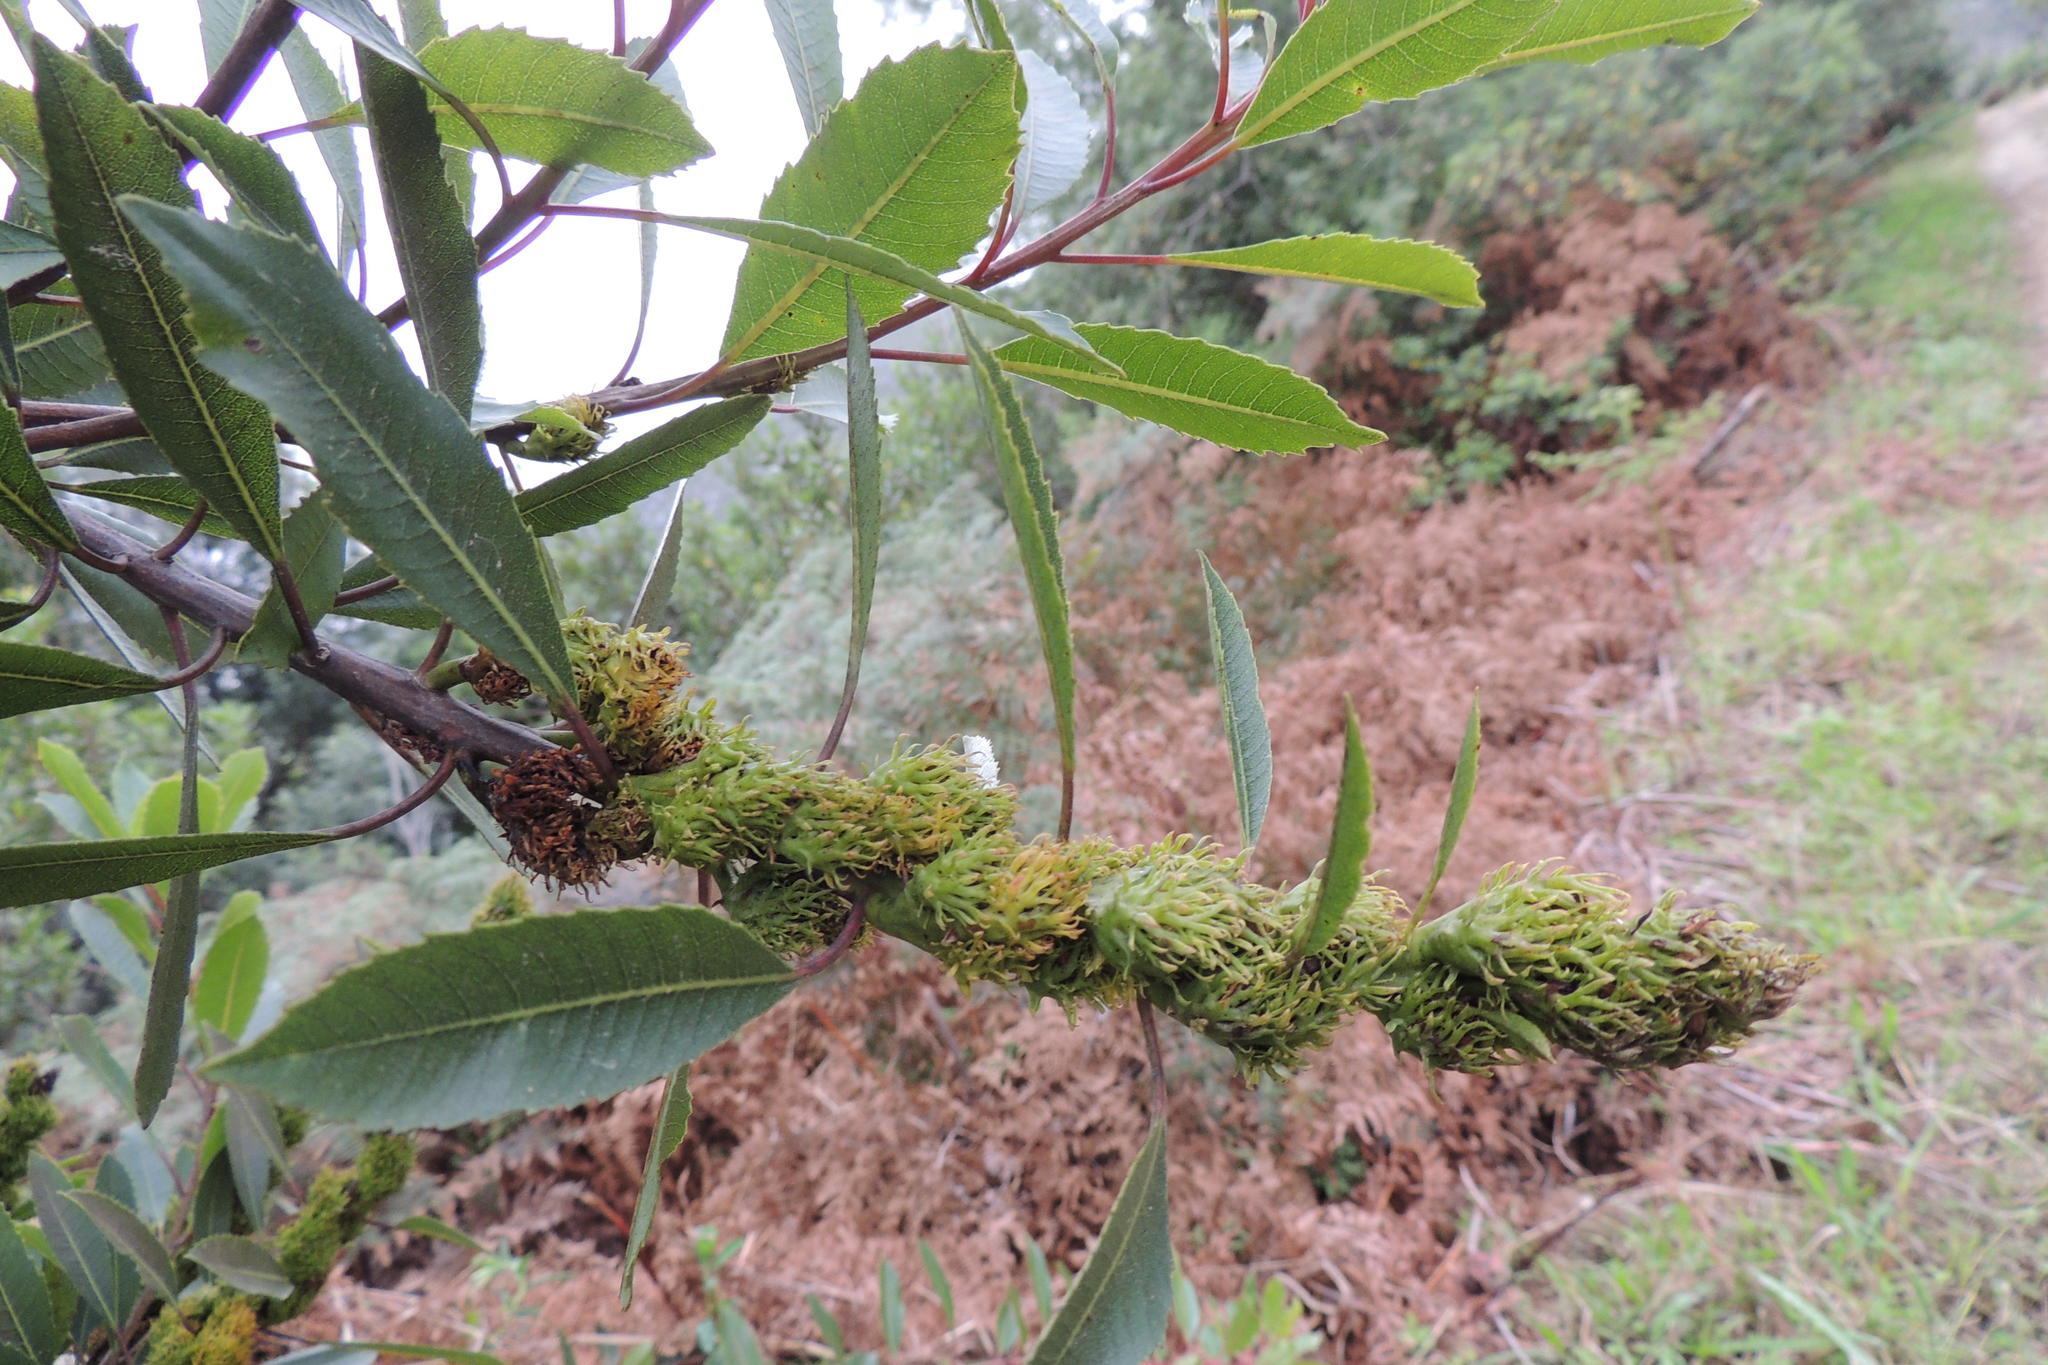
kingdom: Plantae
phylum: Tracheophyta
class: Magnoliopsida
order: Sapindales
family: Anacardiaceae
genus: Laurophyllus
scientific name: Laurophyllus capensis
